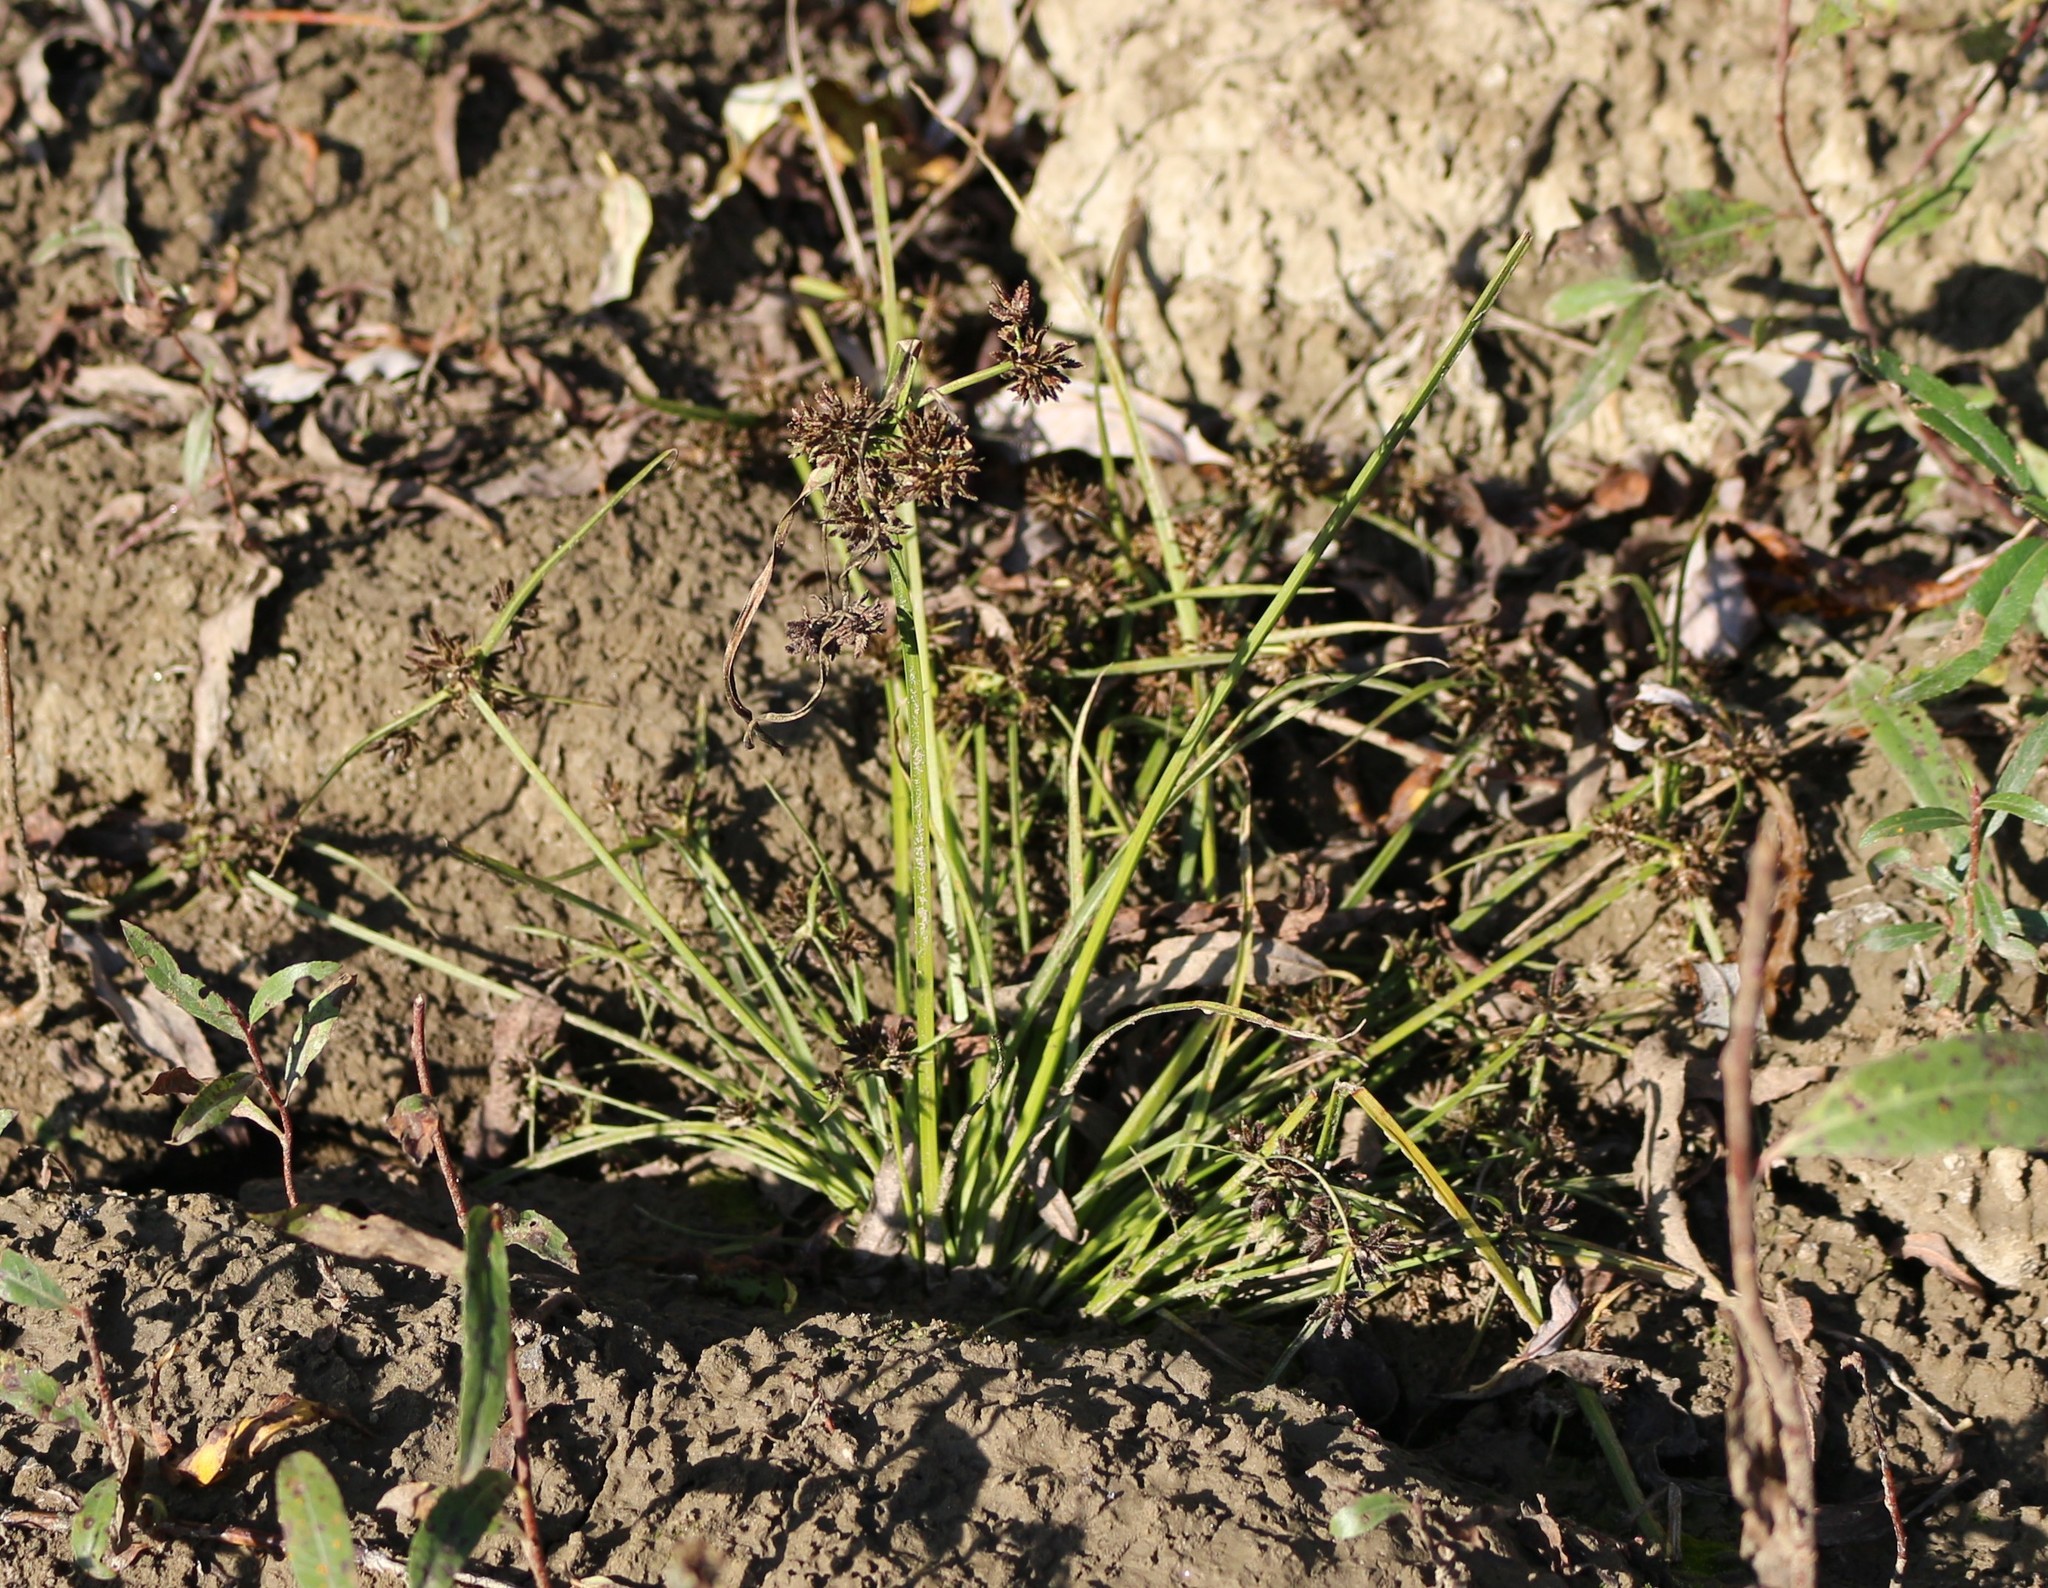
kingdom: Plantae
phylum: Tracheophyta
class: Liliopsida
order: Poales
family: Cyperaceae
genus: Cyperus
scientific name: Cyperus fuscus
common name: Brown galingale
